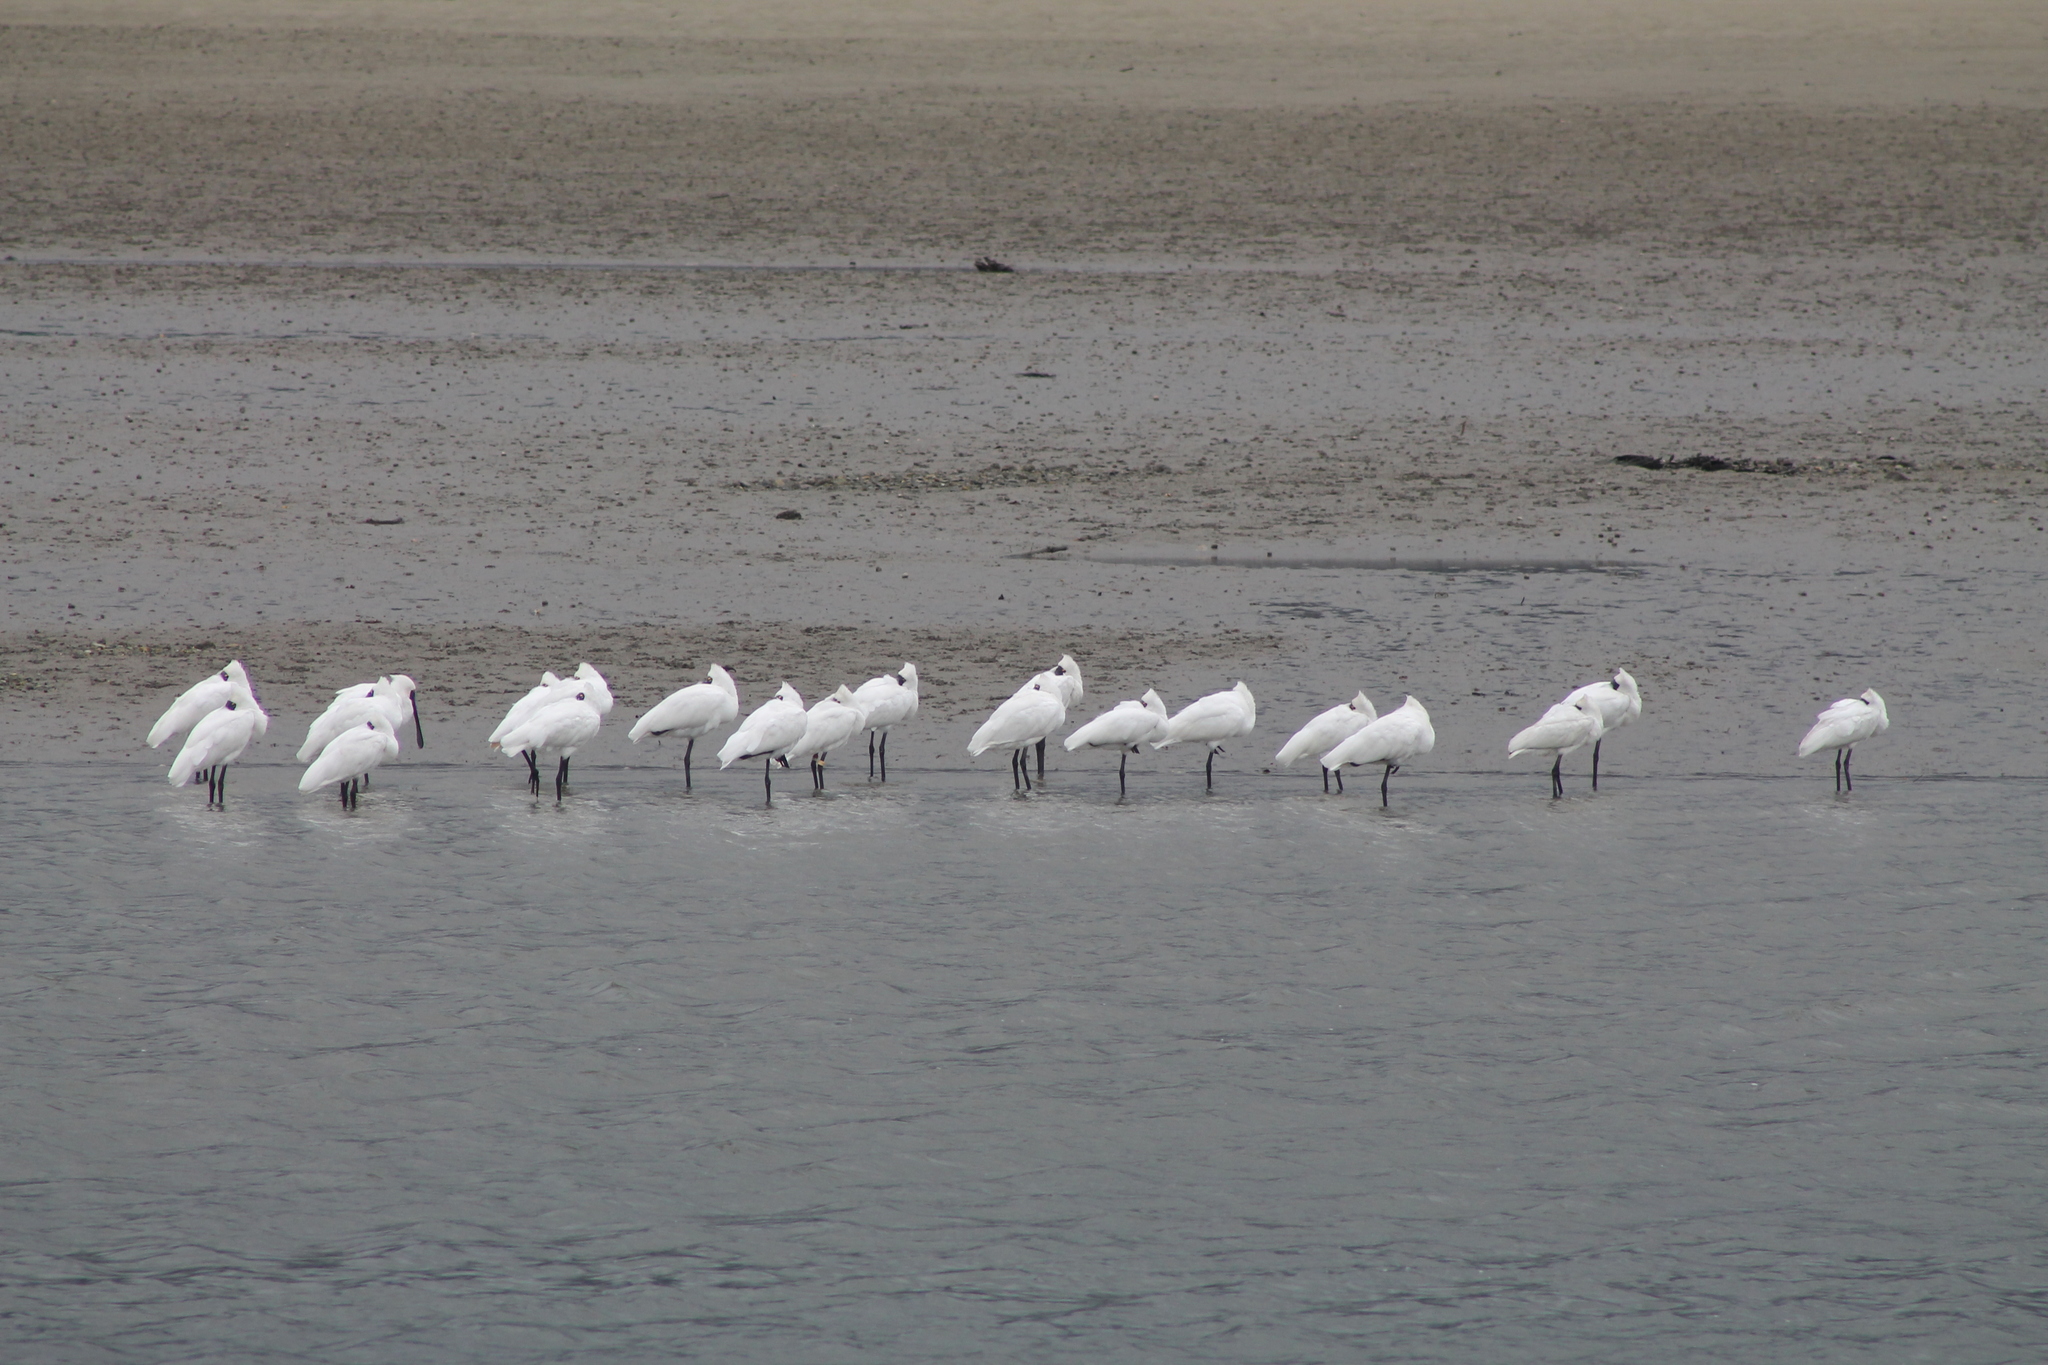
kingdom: Animalia
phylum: Chordata
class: Aves
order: Pelecaniformes
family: Threskiornithidae
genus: Platalea
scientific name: Platalea regia
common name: Royal spoonbill
